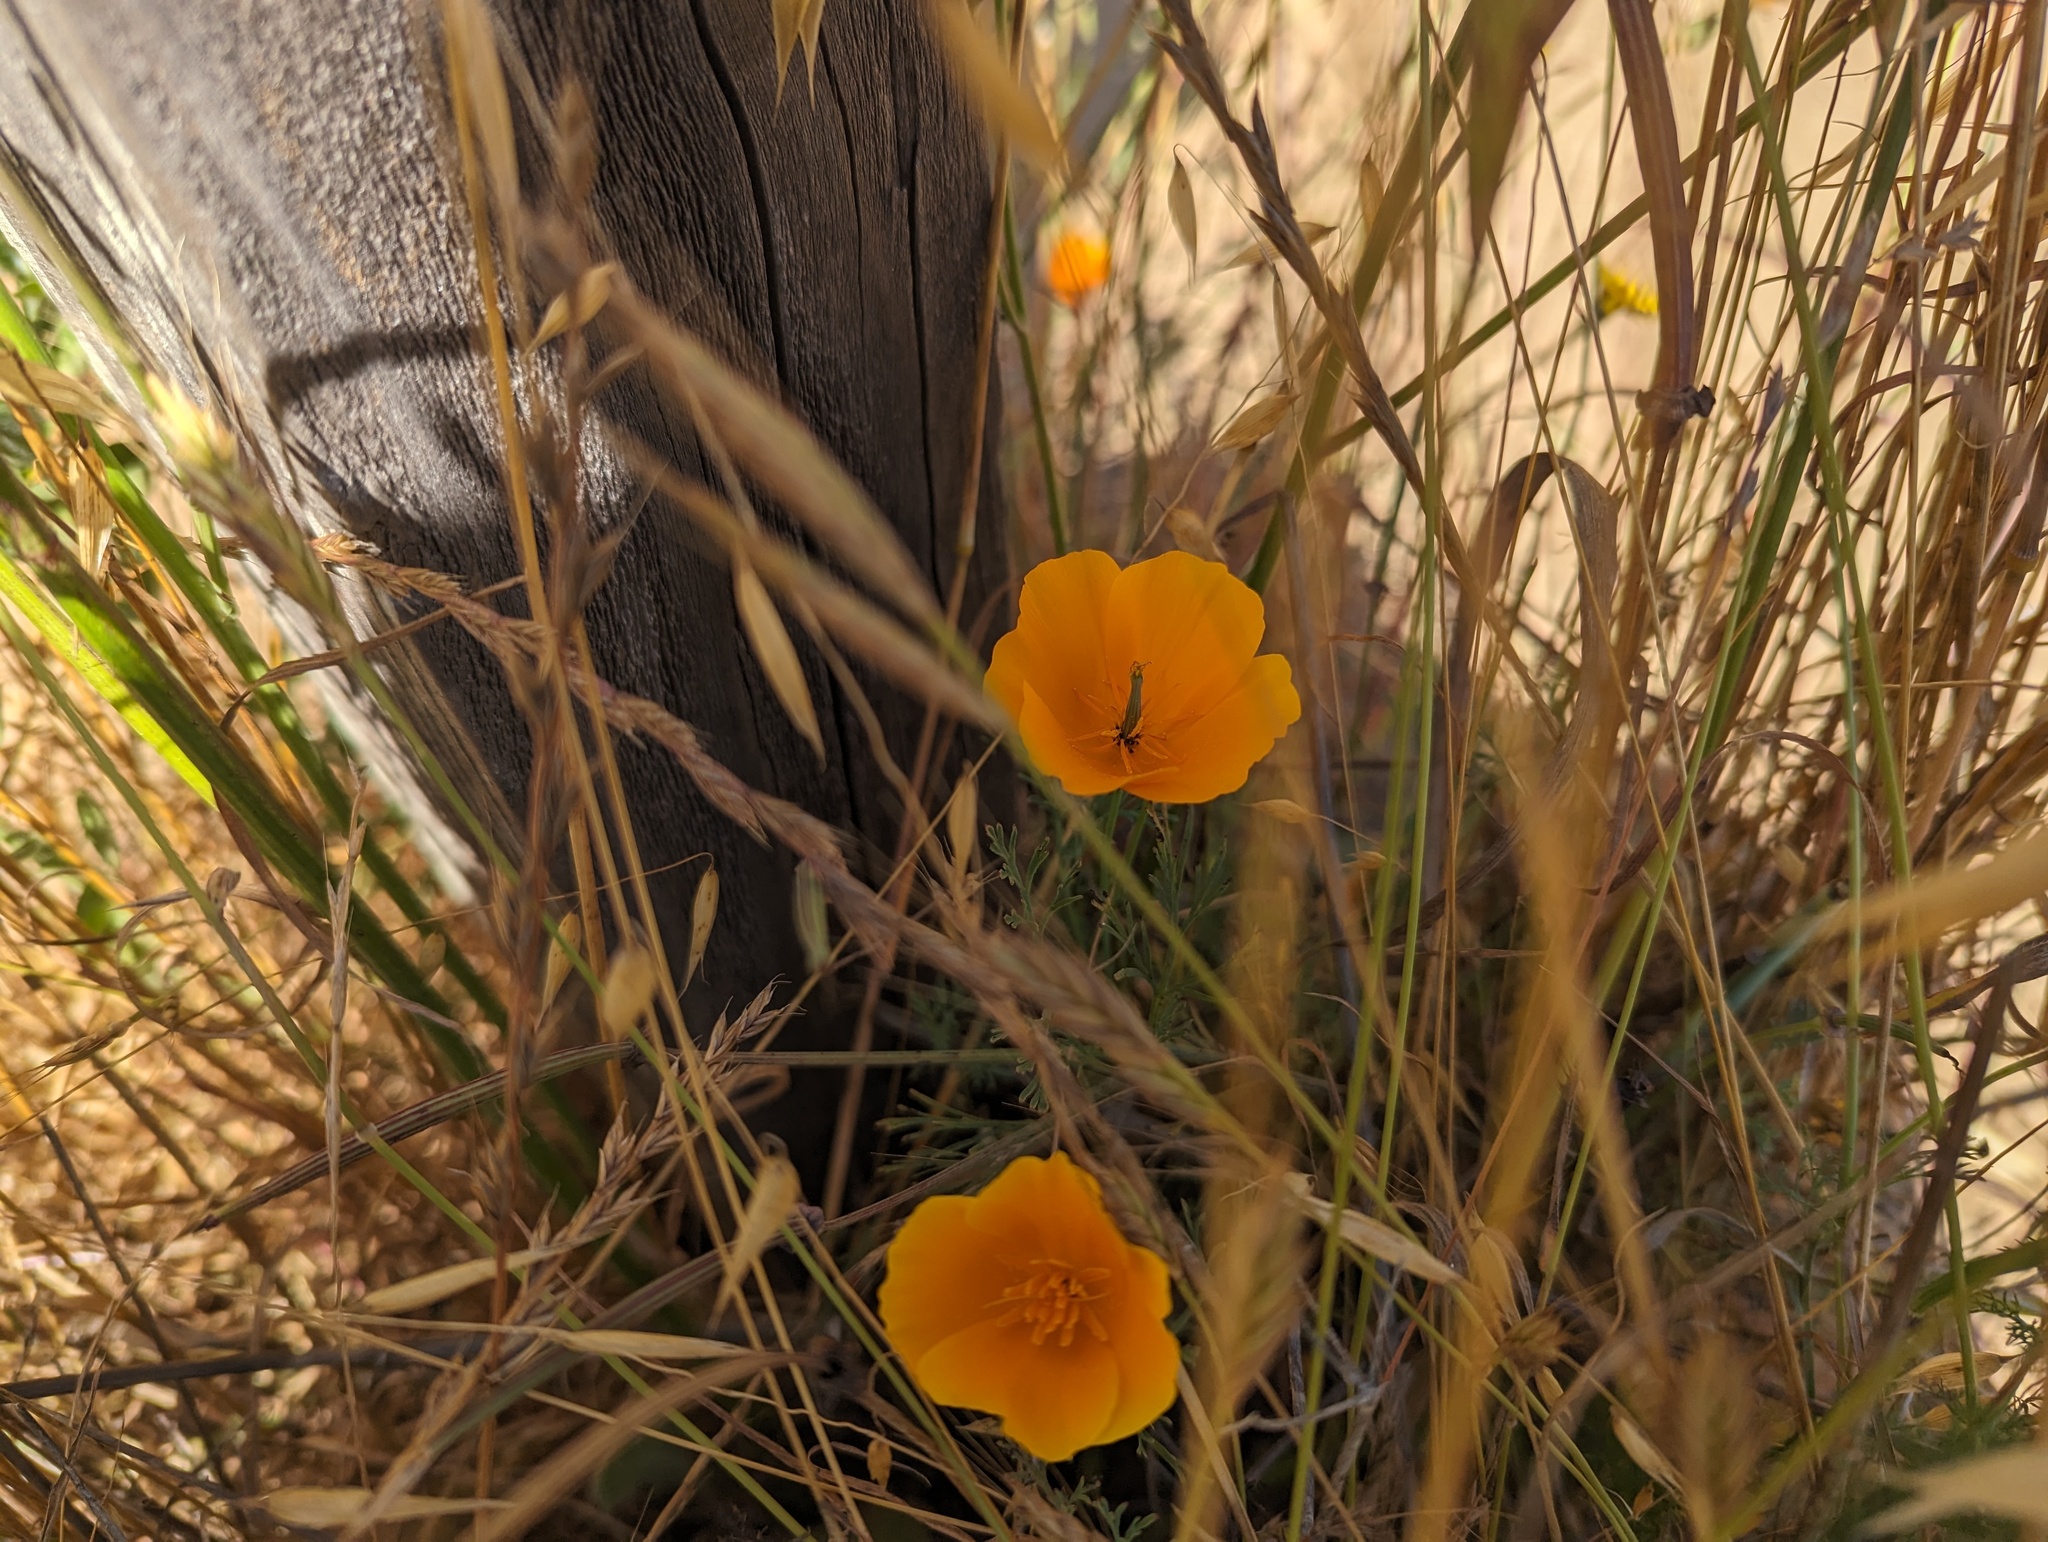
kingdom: Plantae
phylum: Tracheophyta
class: Magnoliopsida
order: Ranunculales
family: Papaveraceae
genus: Eschscholzia
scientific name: Eschscholzia californica
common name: California poppy
